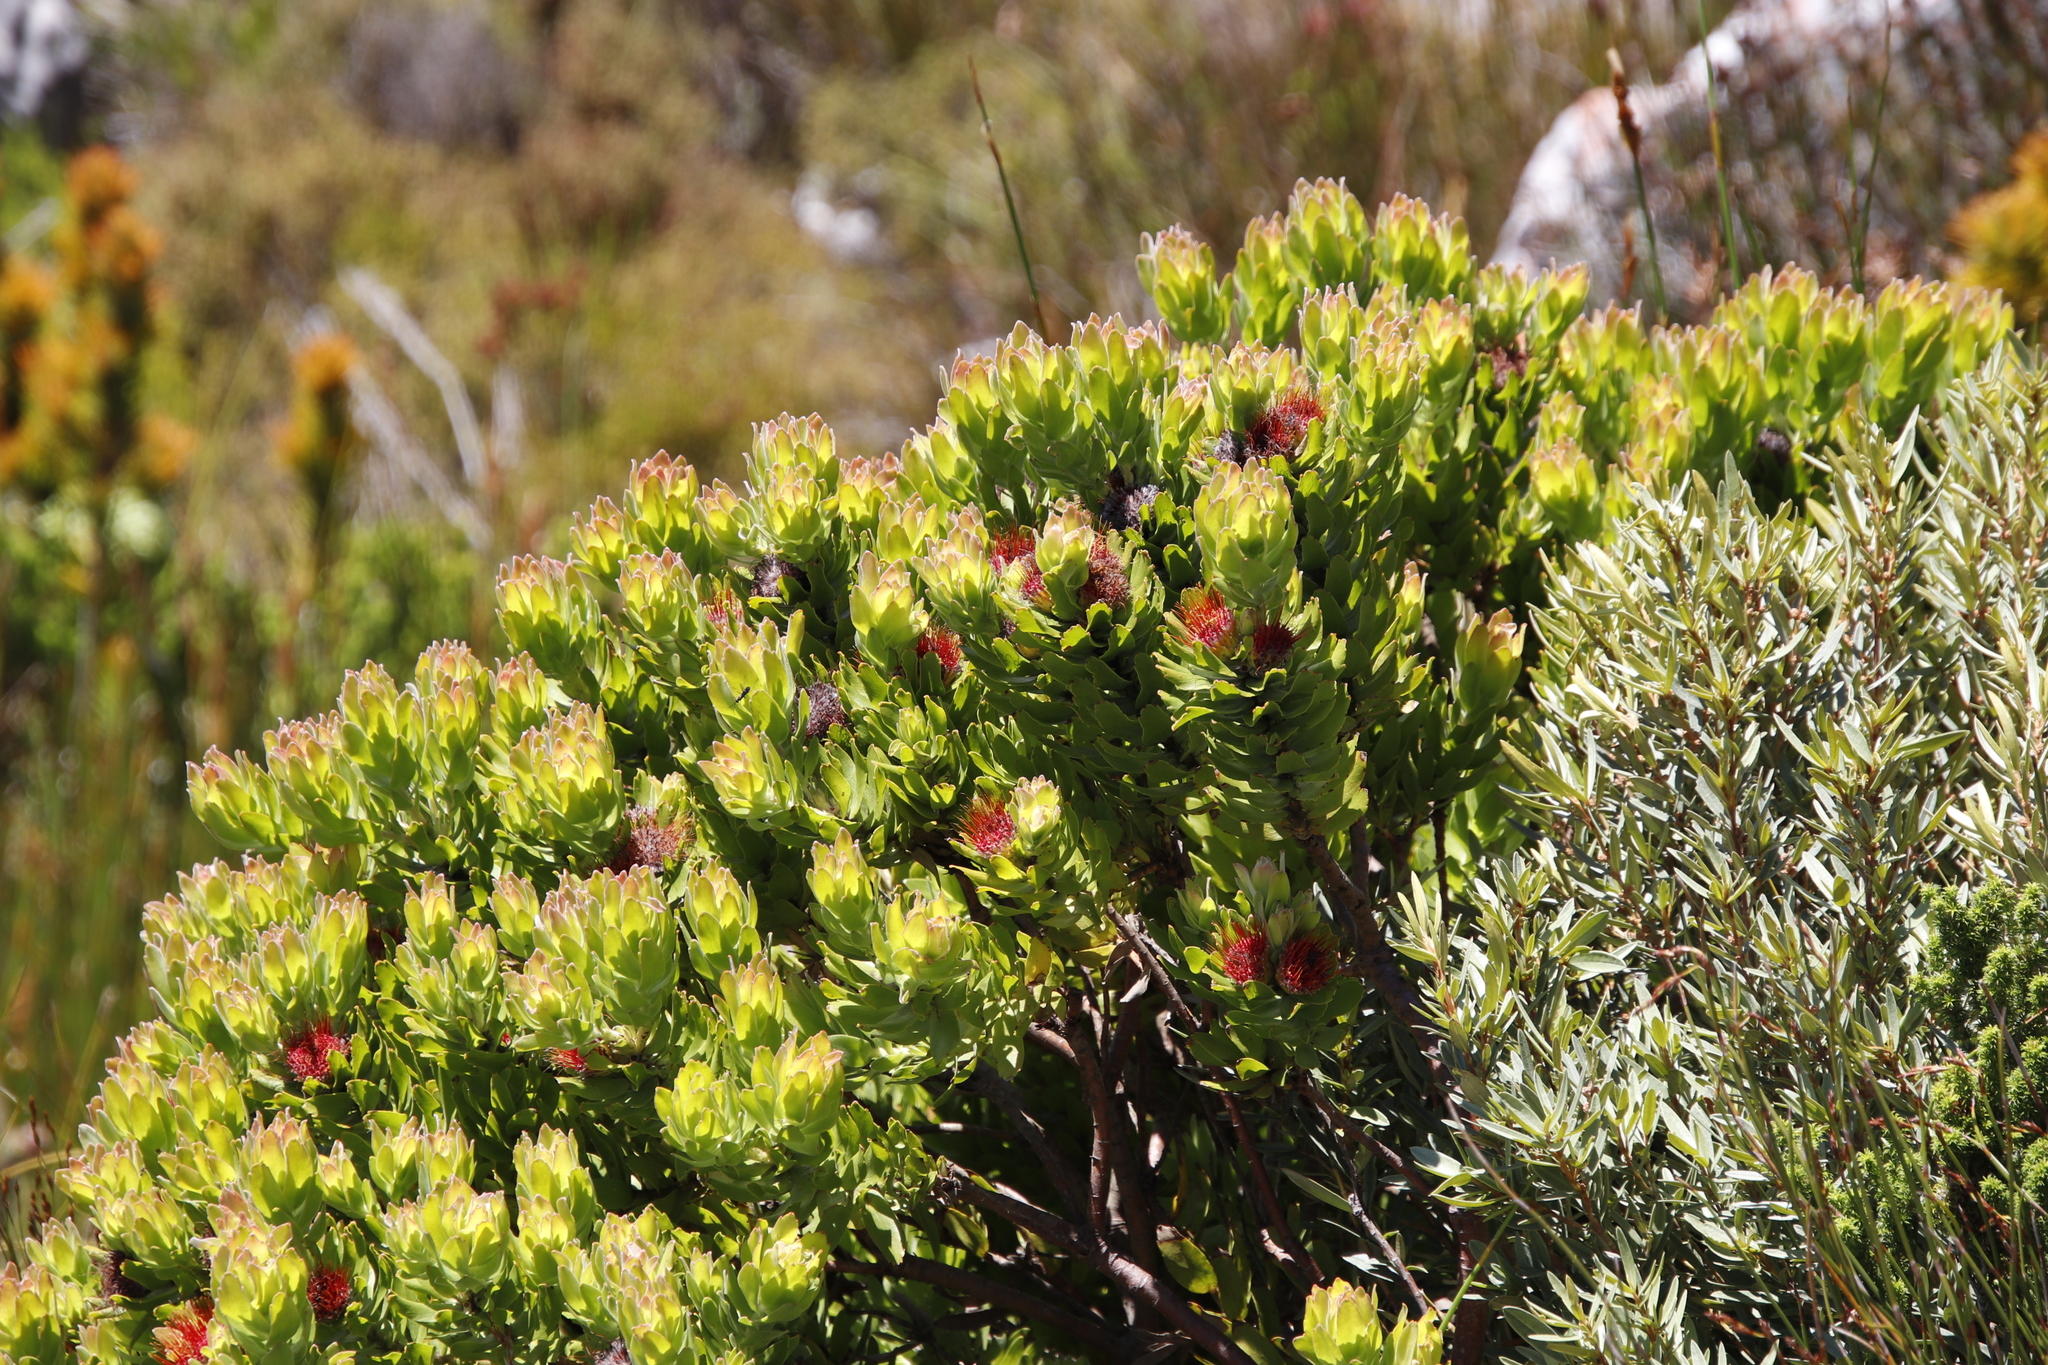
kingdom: Plantae
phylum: Tracheophyta
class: Magnoliopsida
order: Proteales
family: Proteaceae
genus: Leucospermum
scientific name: Leucospermum oleifolium
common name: Matches
